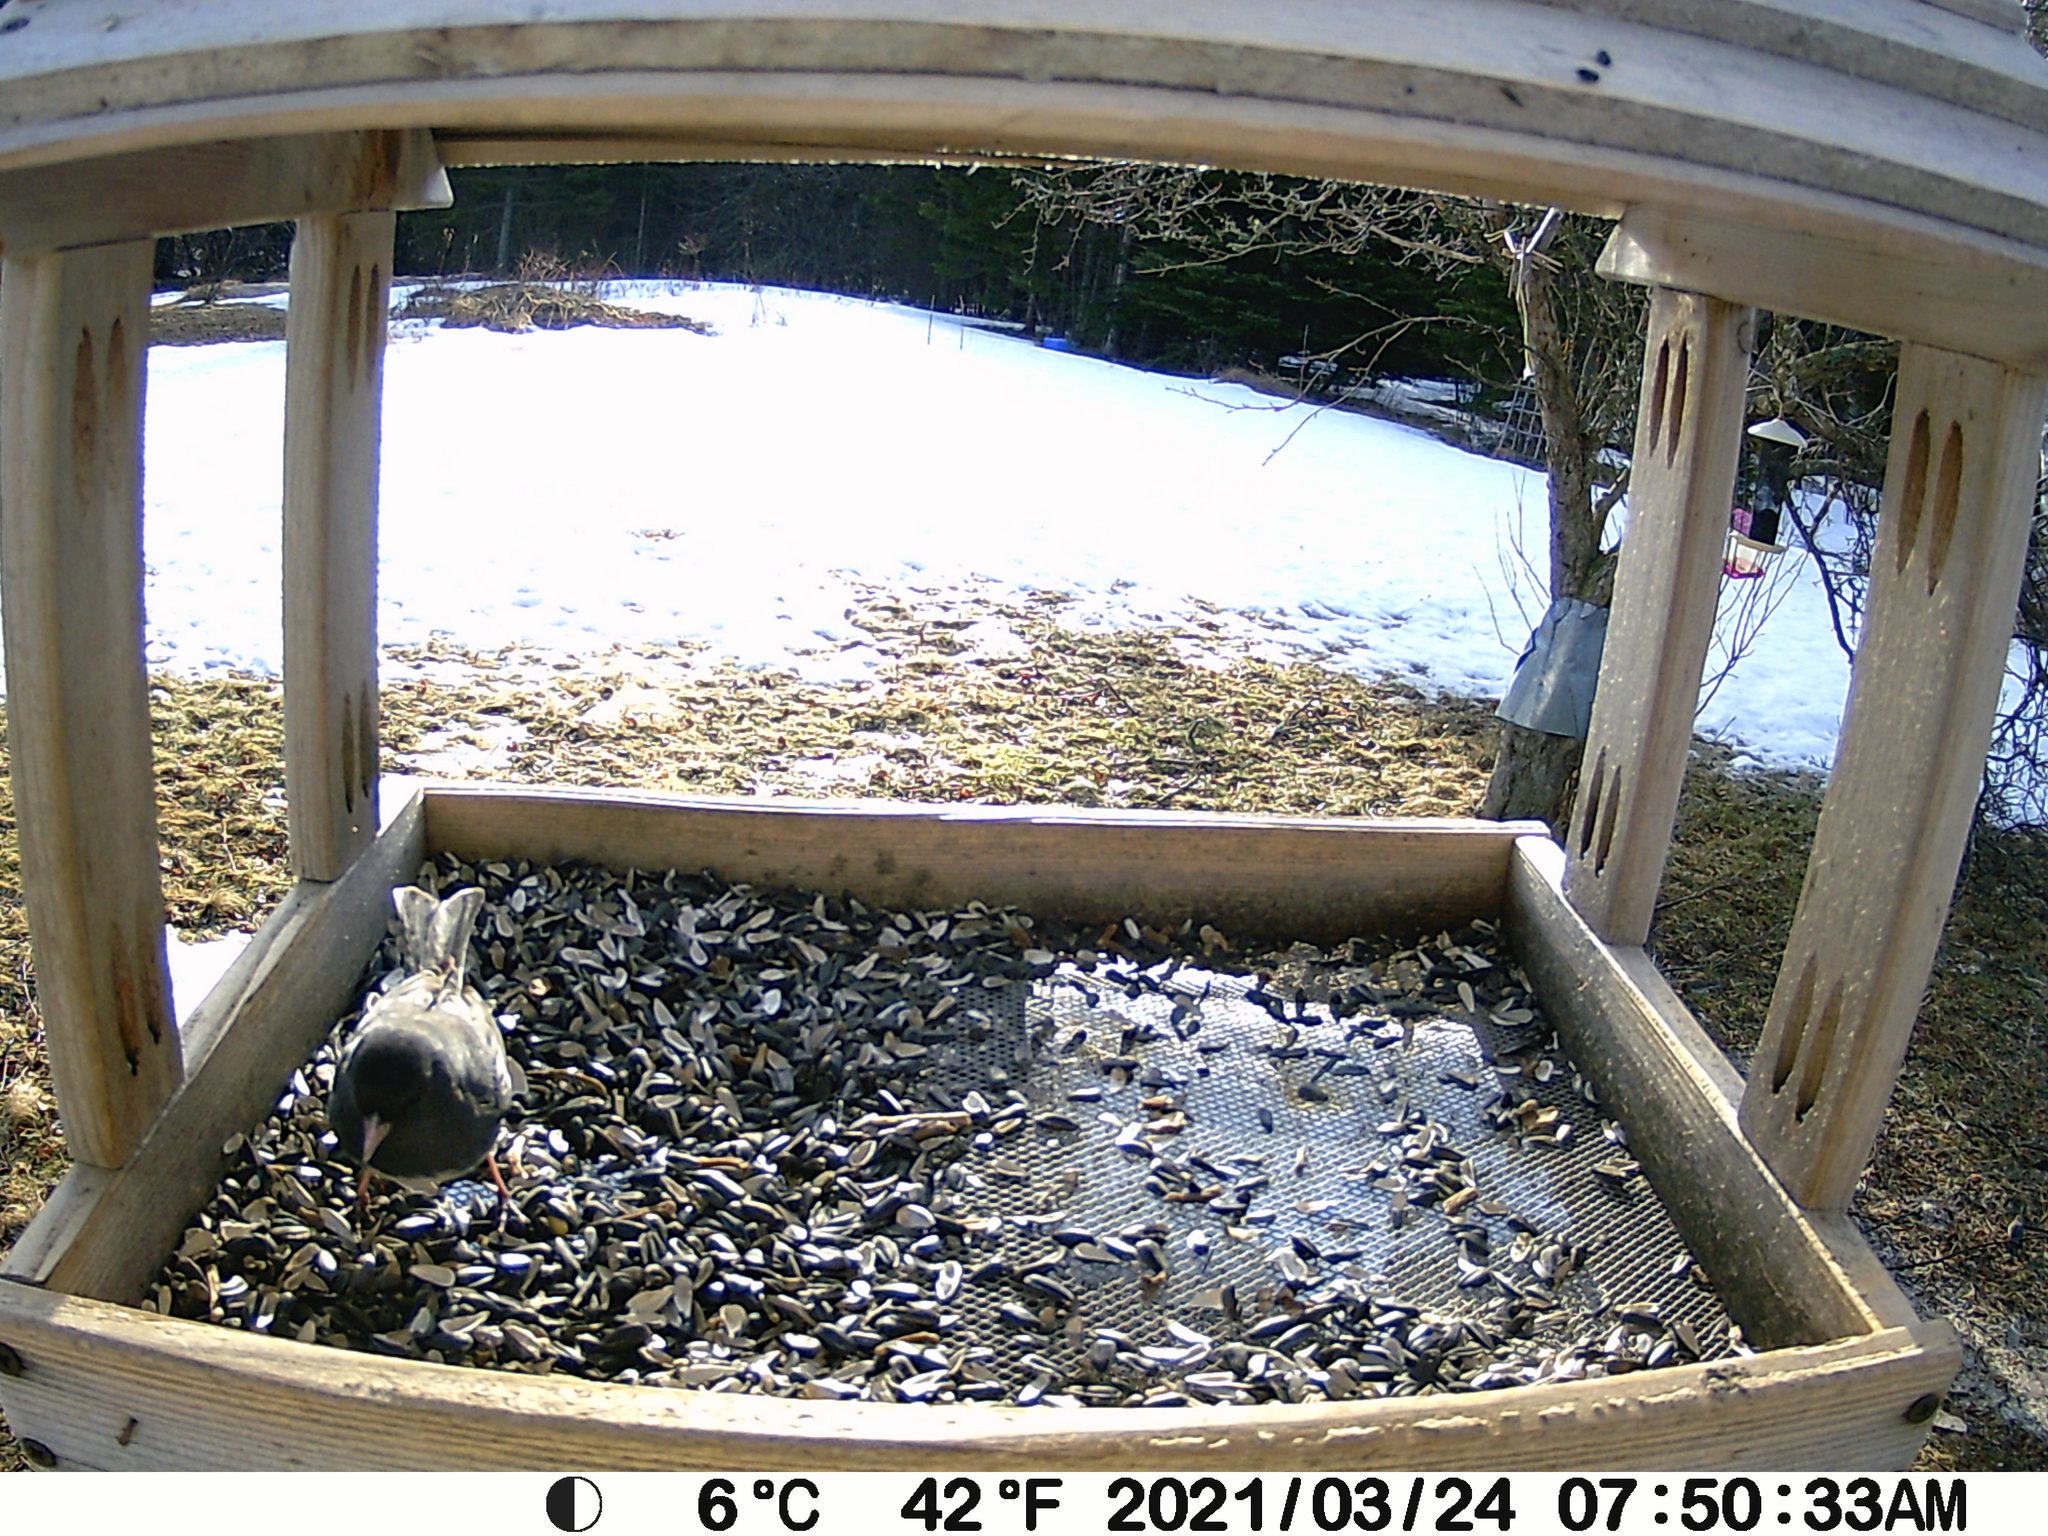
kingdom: Animalia
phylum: Chordata
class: Aves
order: Passeriformes
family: Passerellidae
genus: Junco
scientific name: Junco hyemalis
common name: Dark-eyed junco
